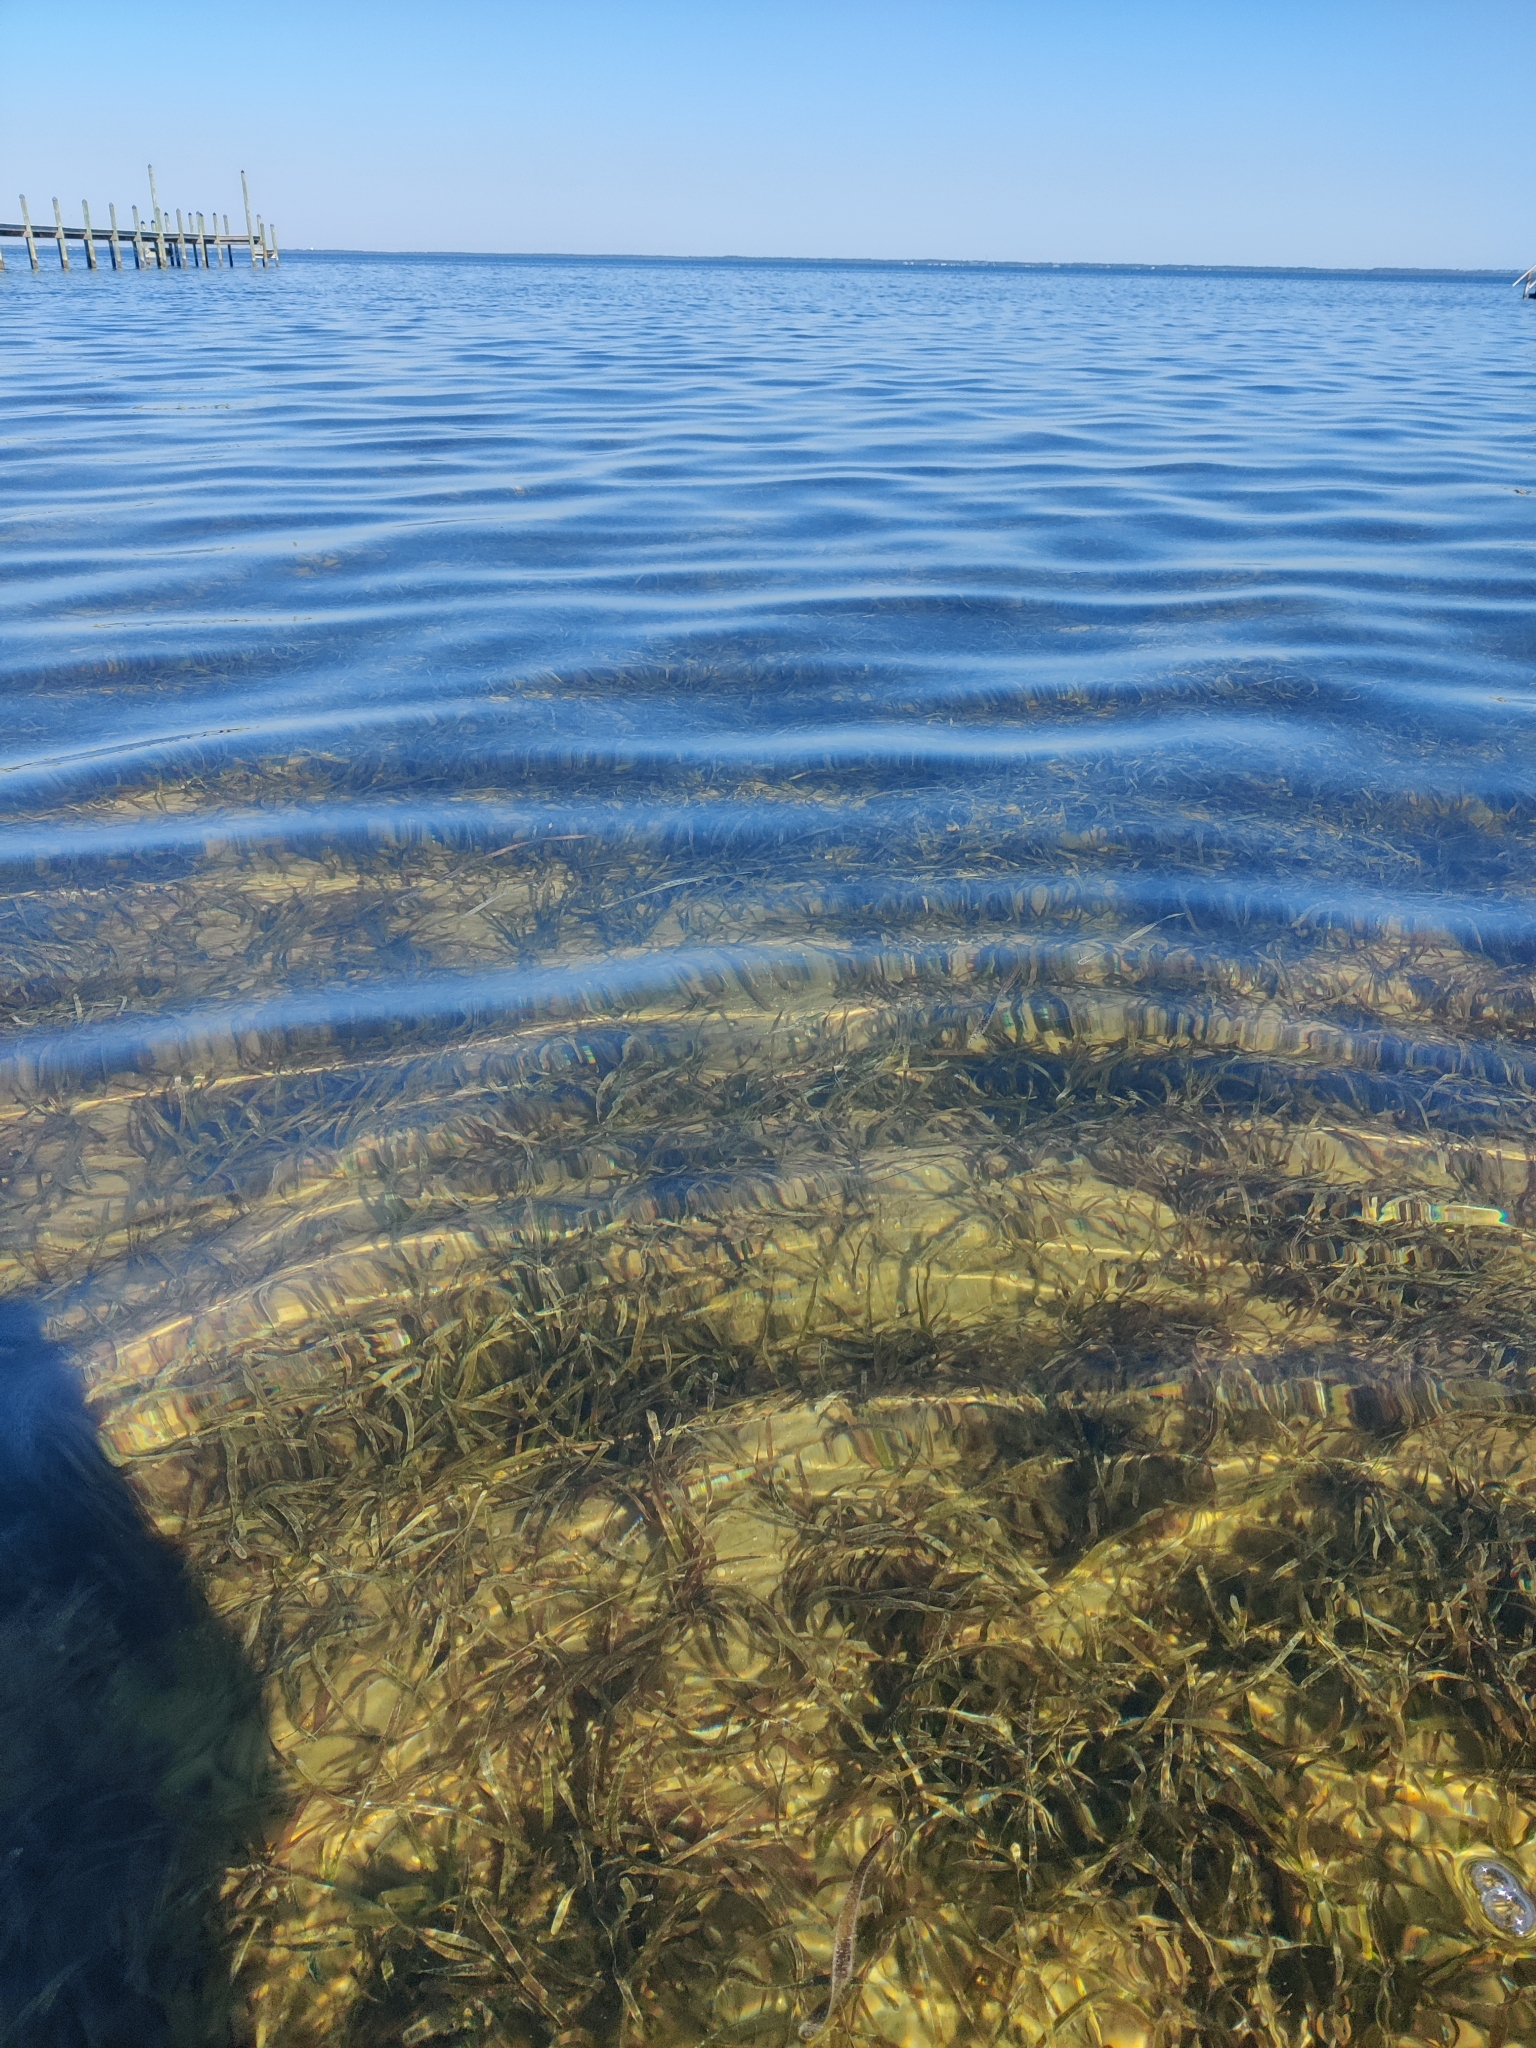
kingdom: Plantae
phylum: Tracheophyta
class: Liliopsida
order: Alismatales
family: Hydrocharitaceae
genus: Thalassia
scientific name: Thalassia testudinum
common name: Species code: tt
